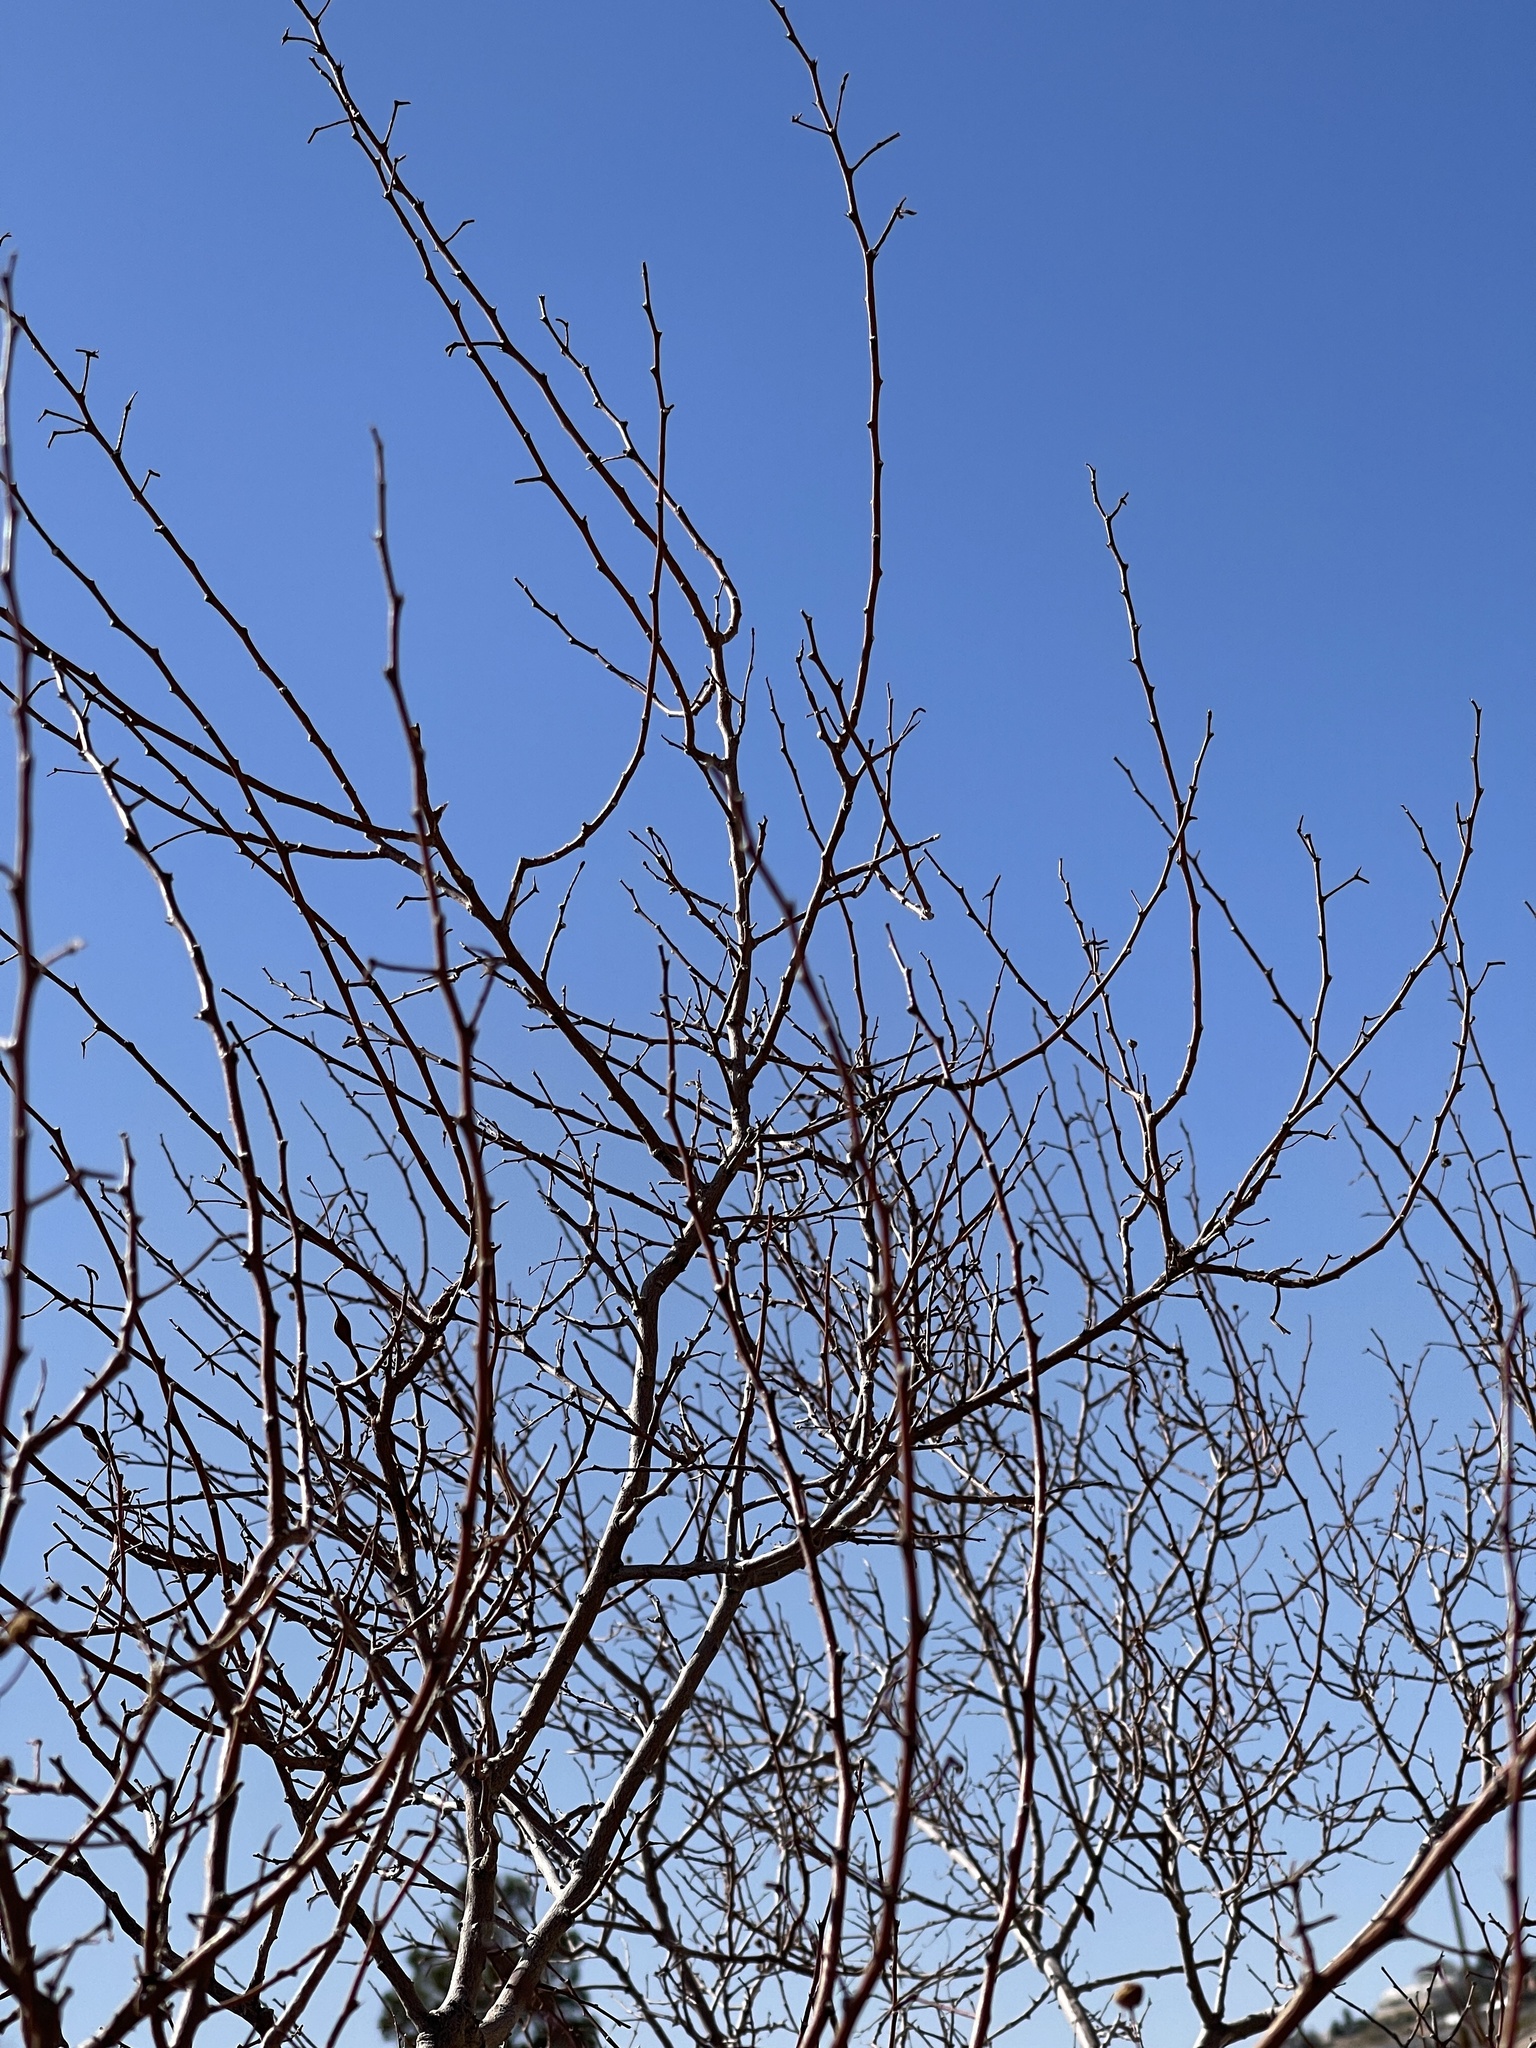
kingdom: Plantae
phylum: Tracheophyta
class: Magnoliopsida
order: Fabales
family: Fabaceae
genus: Vachellia
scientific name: Vachellia constricta
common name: Mescat acacia
